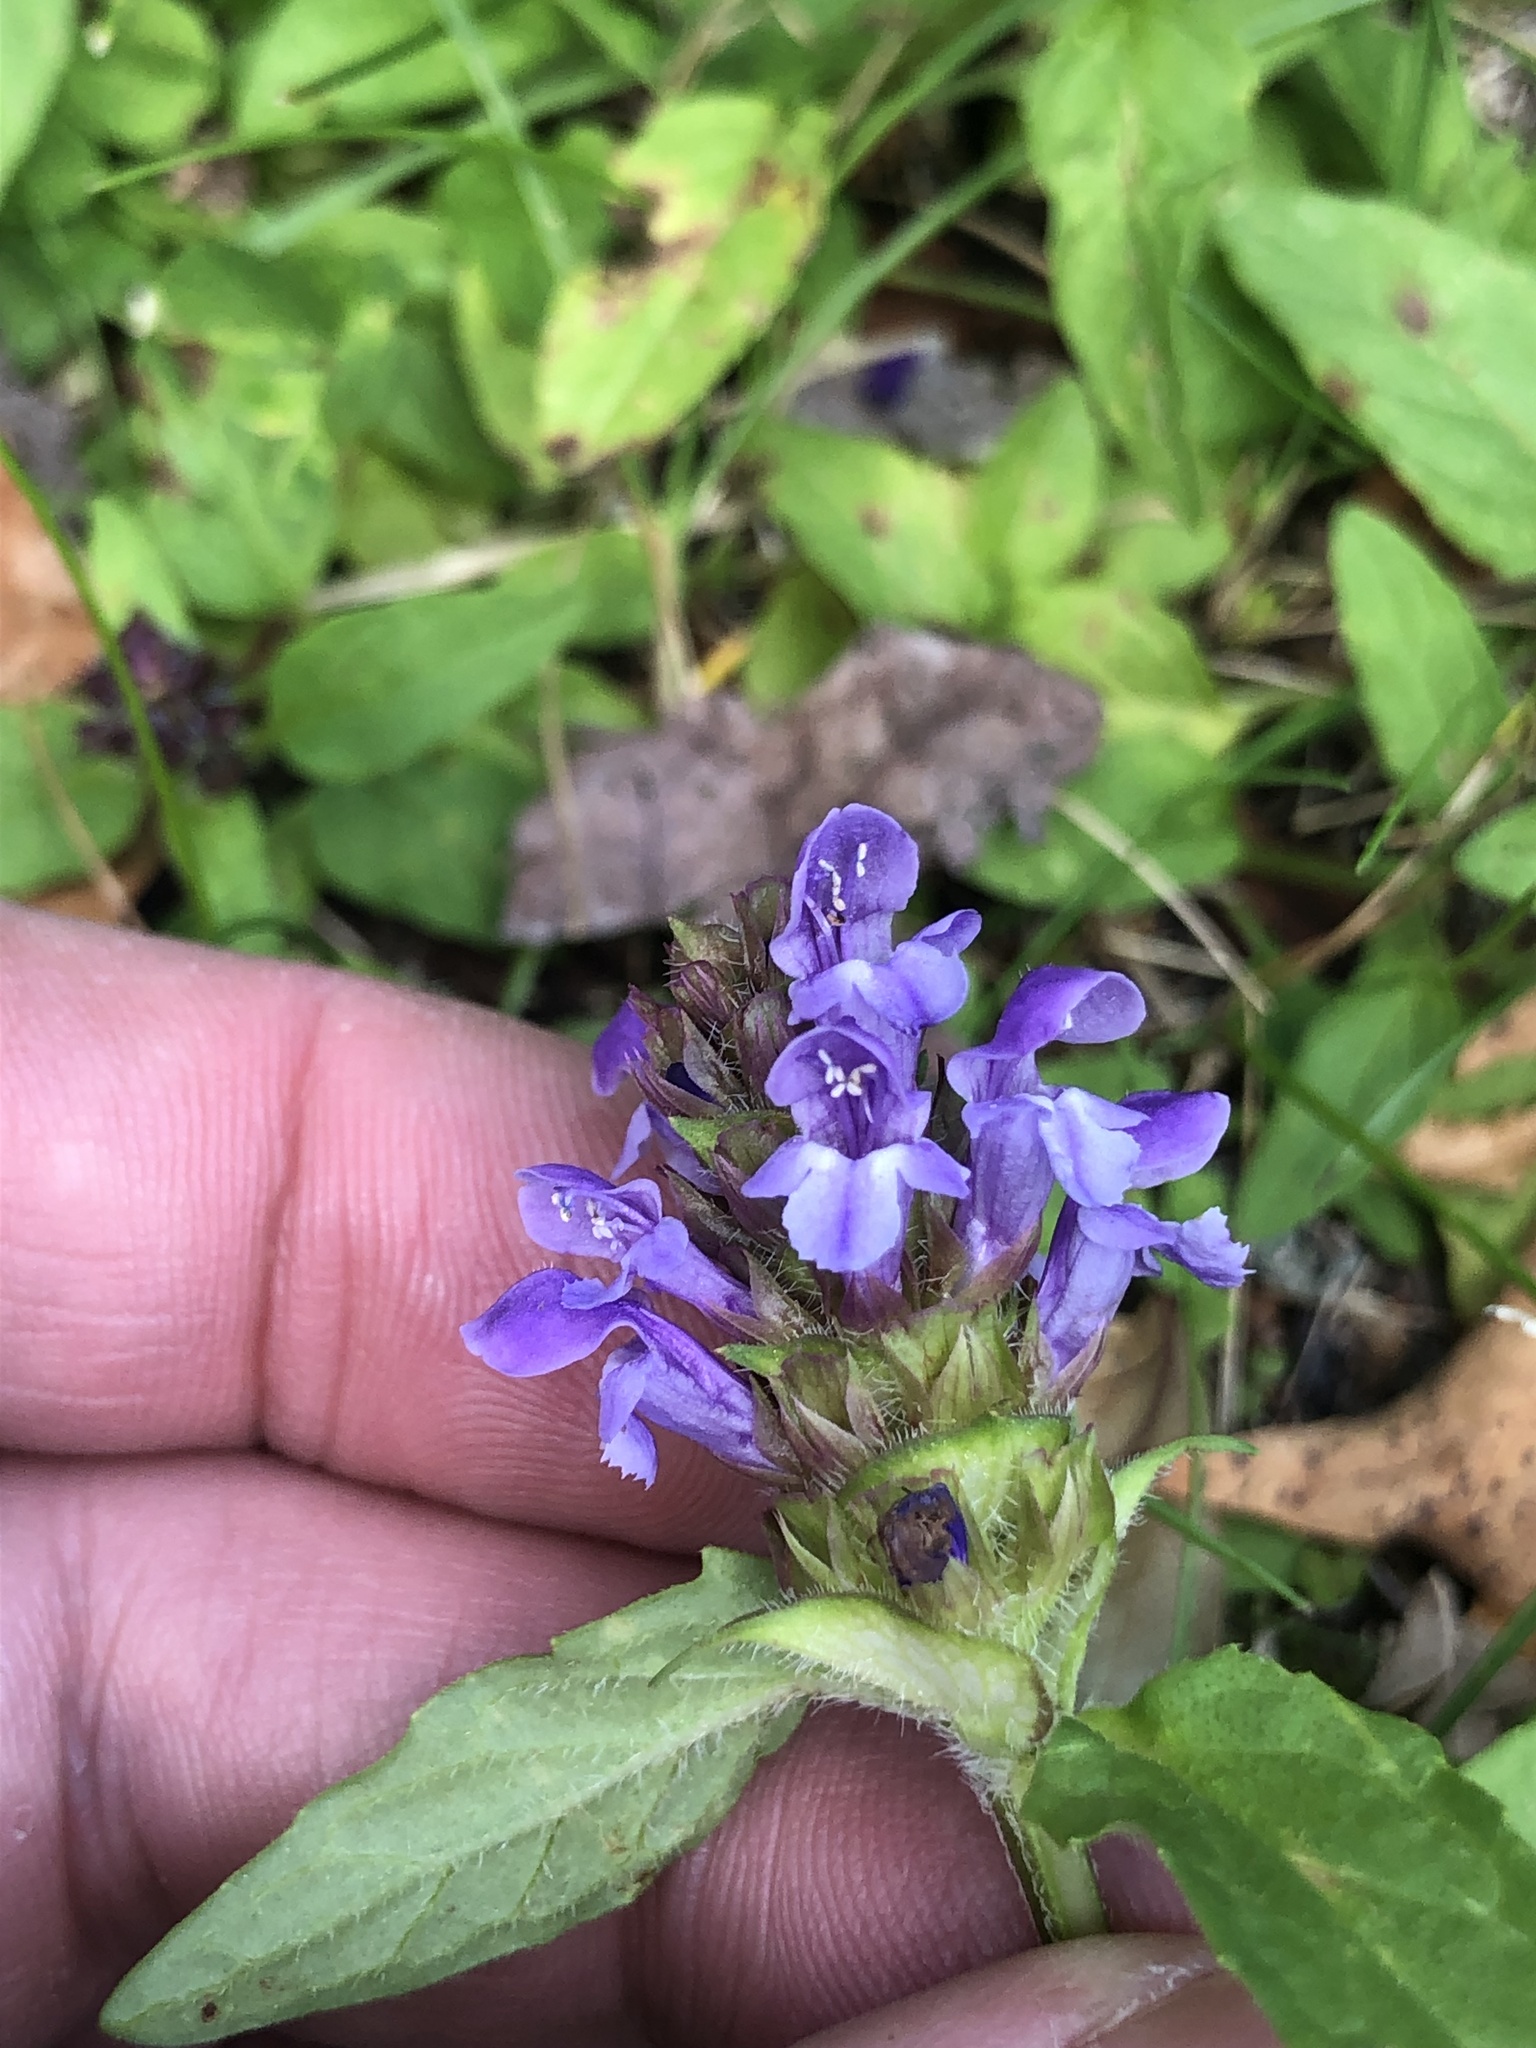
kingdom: Plantae
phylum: Tracheophyta
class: Magnoliopsida
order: Lamiales
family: Lamiaceae
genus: Prunella
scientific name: Prunella vulgaris
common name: Heal-all
